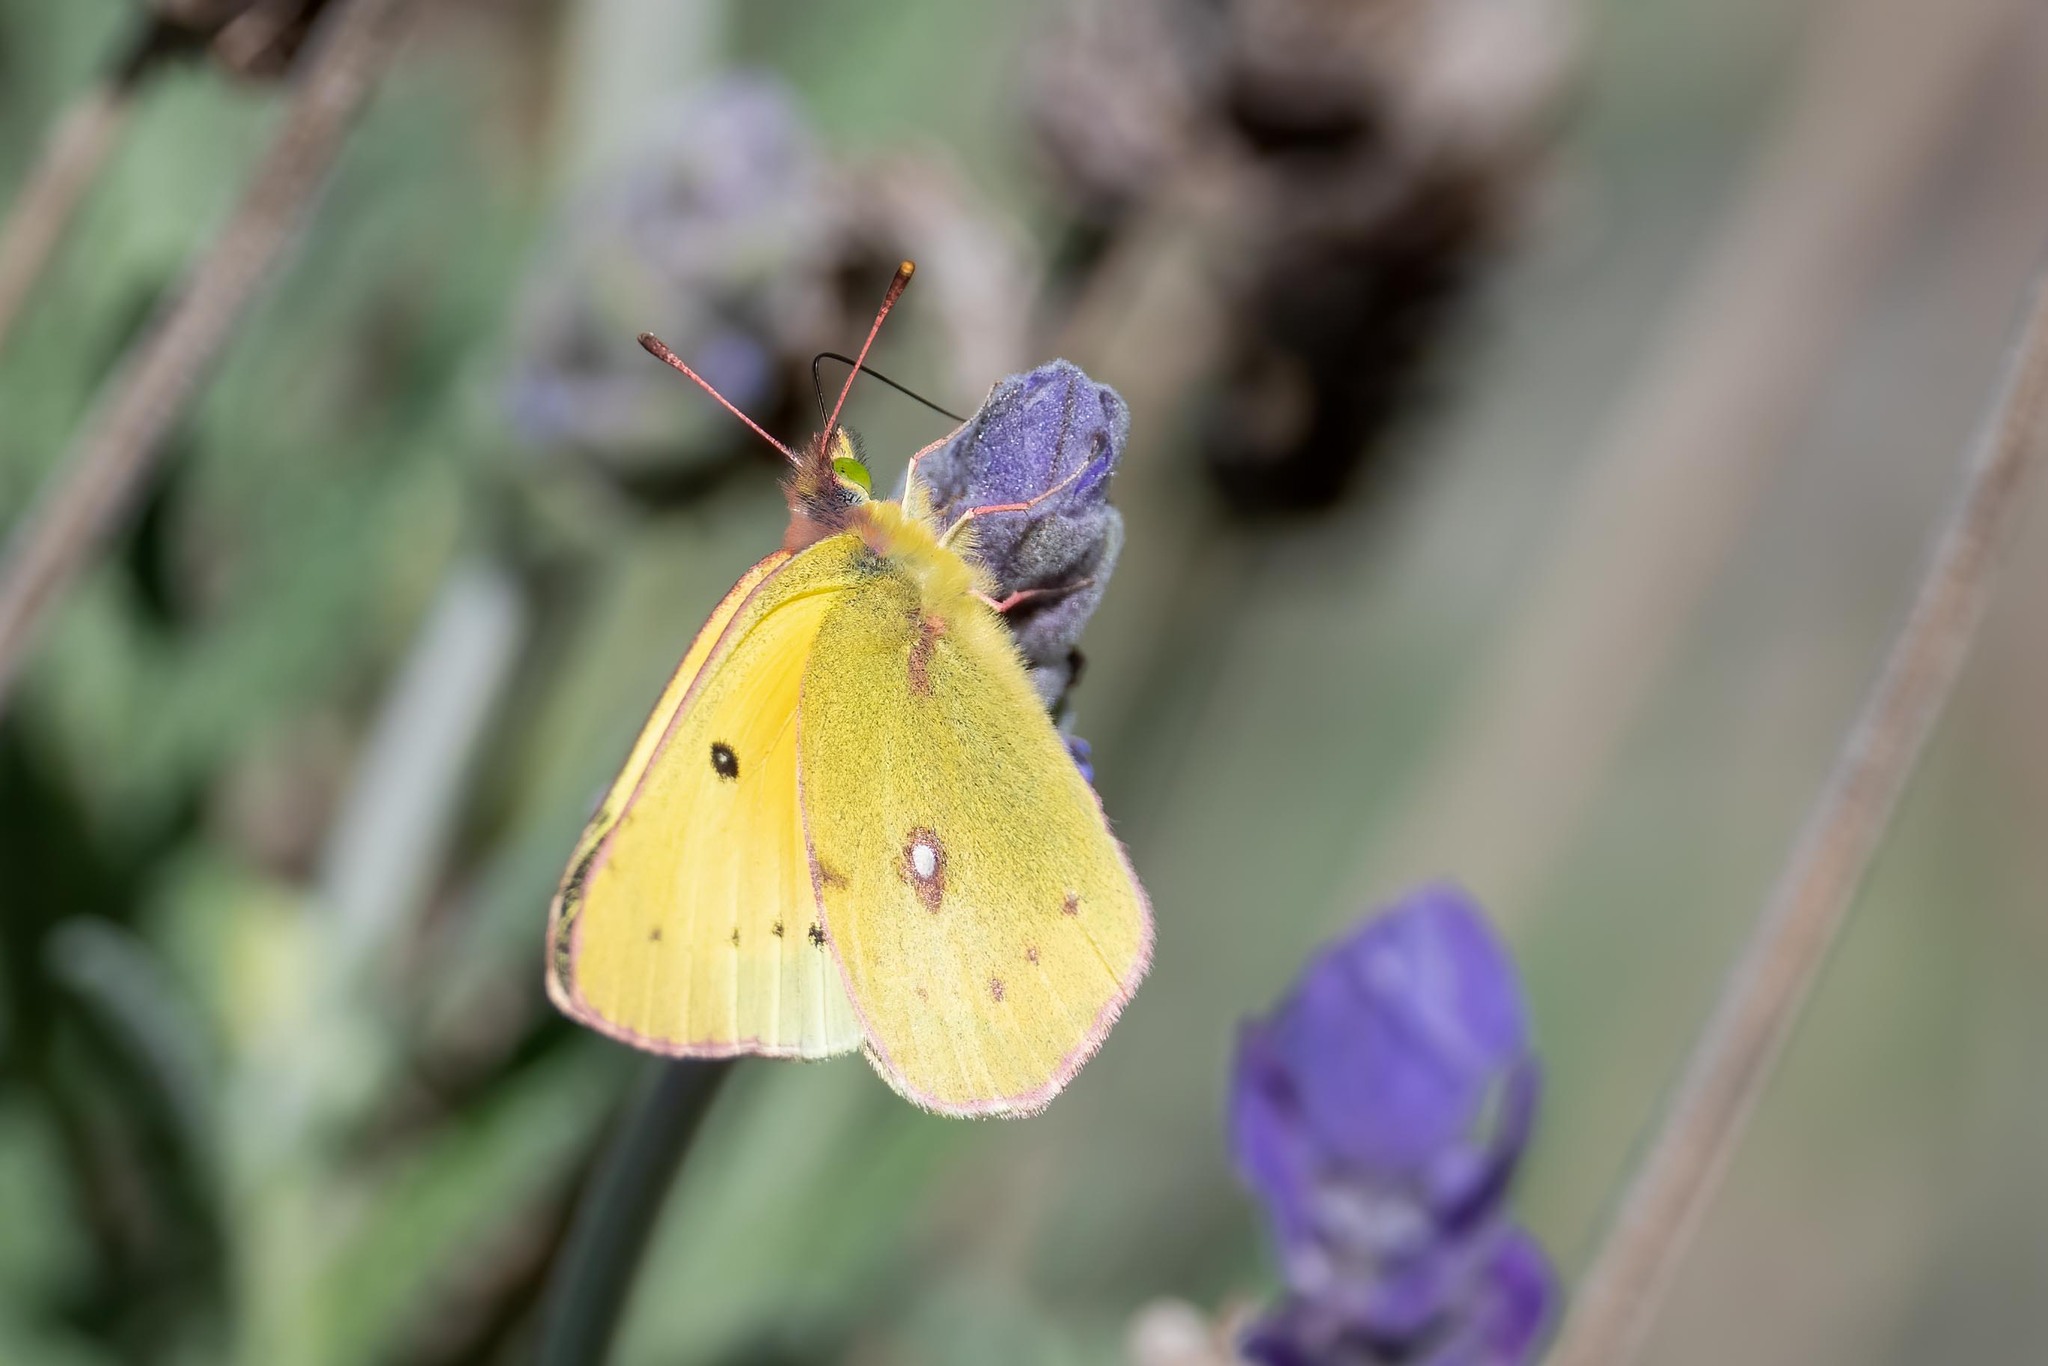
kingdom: Animalia
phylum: Arthropoda
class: Insecta
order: Lepidoptera
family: Pieridae
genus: Colias
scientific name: Colias eurytheme
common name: Alfalfa butterfly
